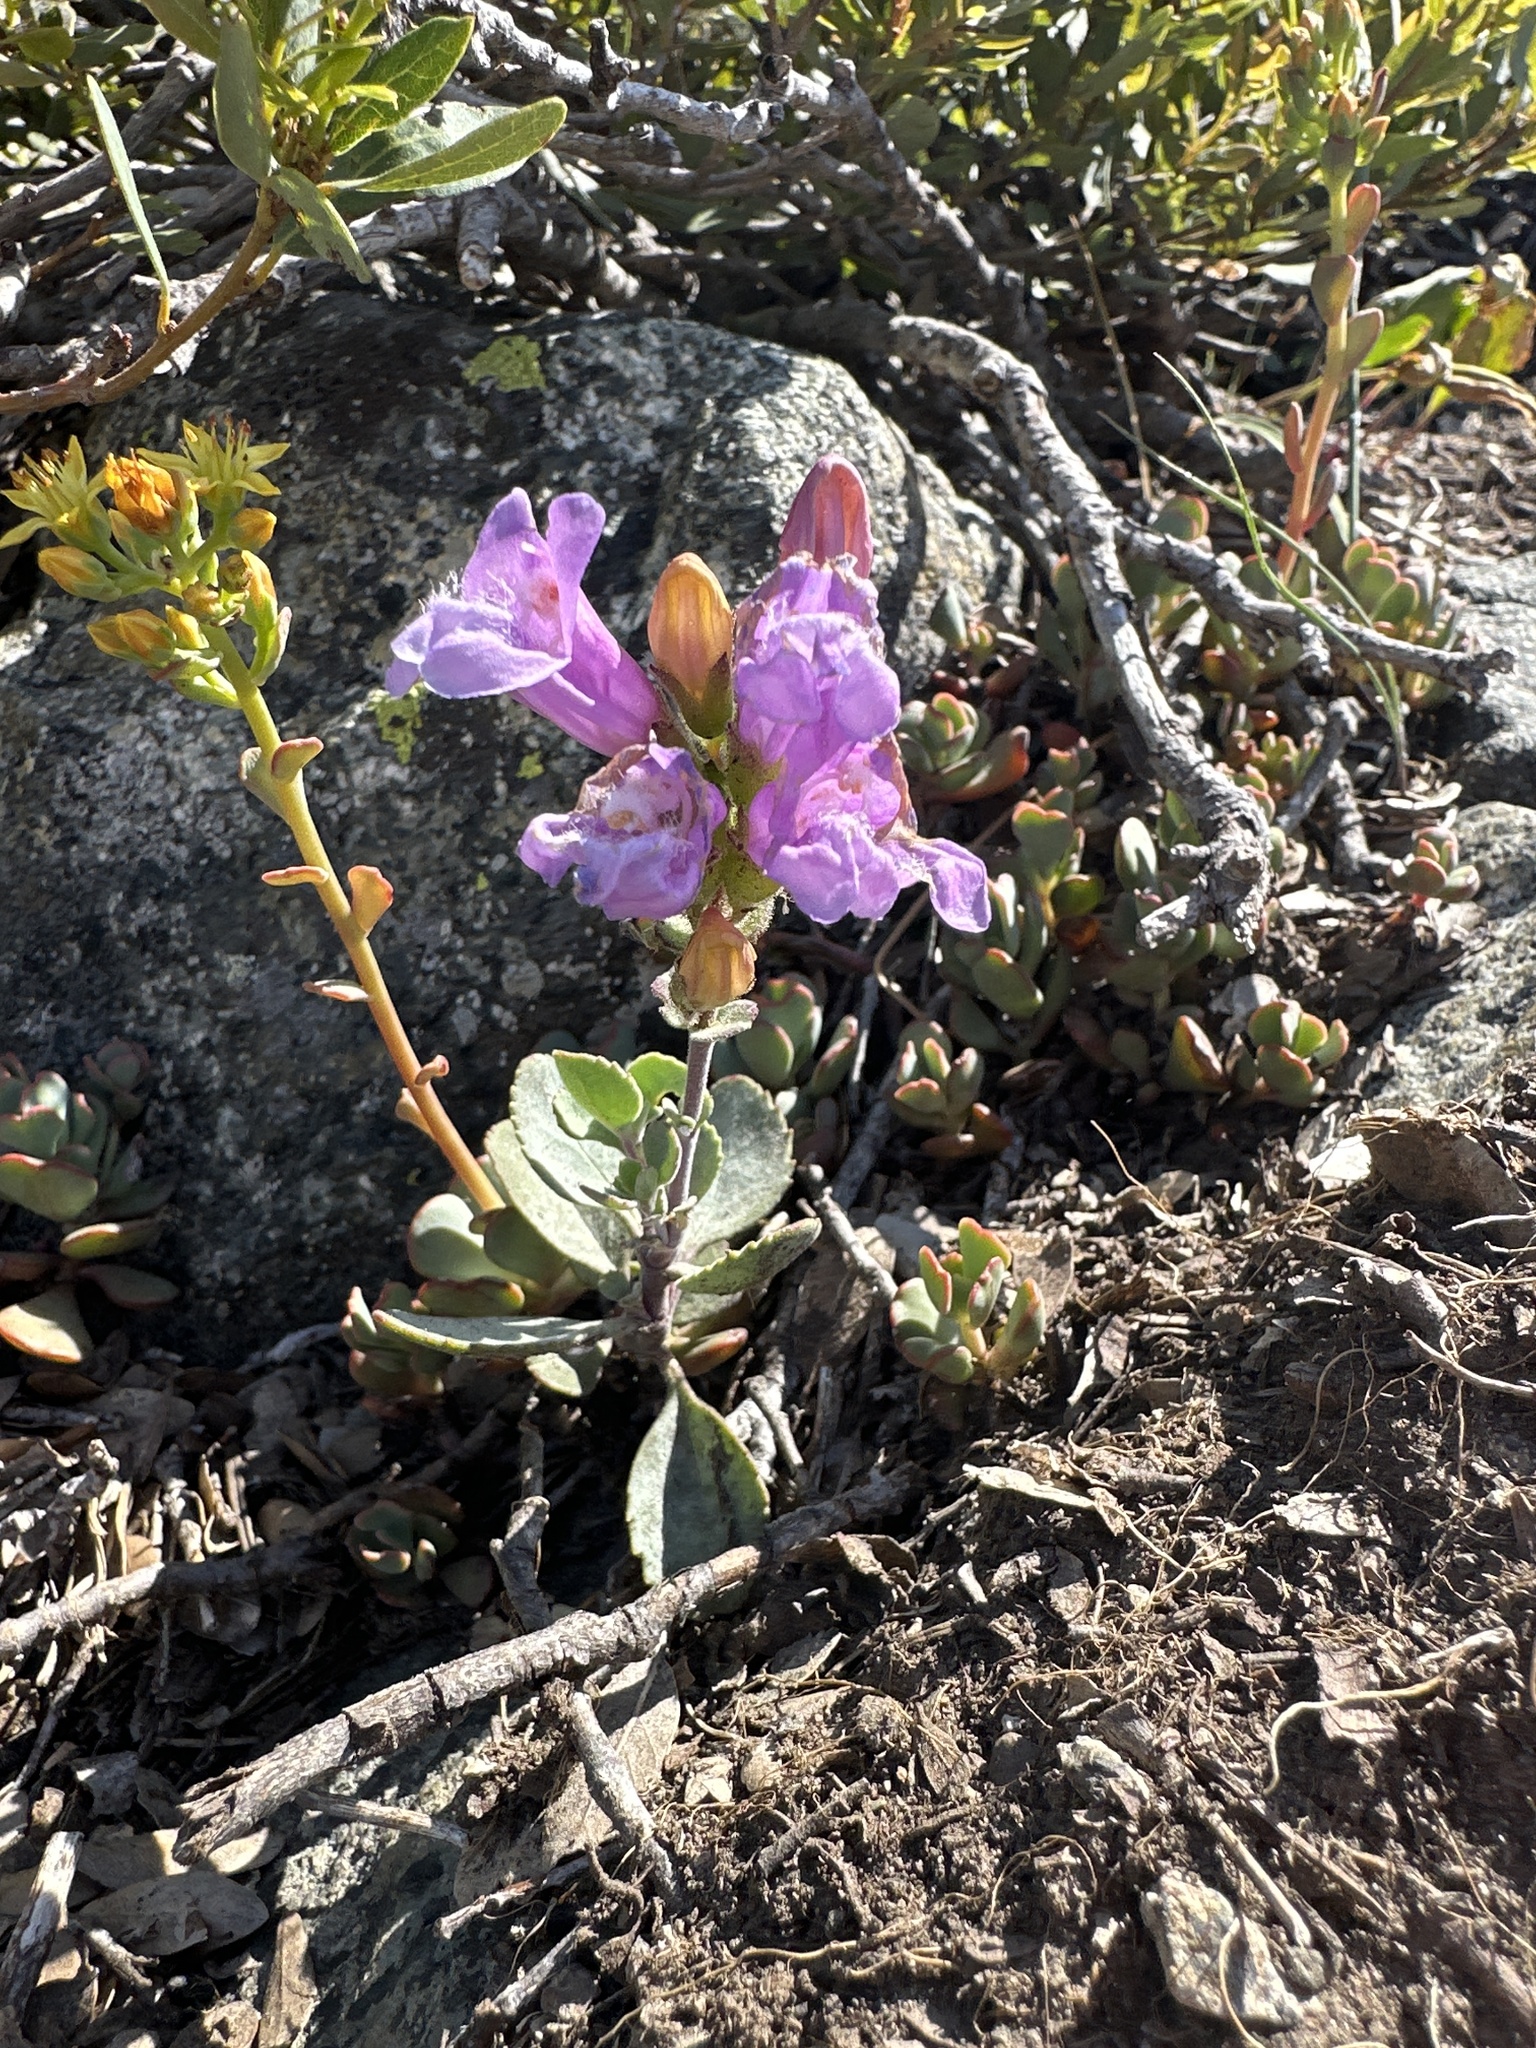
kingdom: Plantae
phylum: Tracheophyta
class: Magnoliopsida
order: Lamiales
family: Plantaginaceae
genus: Penstemon
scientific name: Penstemon rupicola
